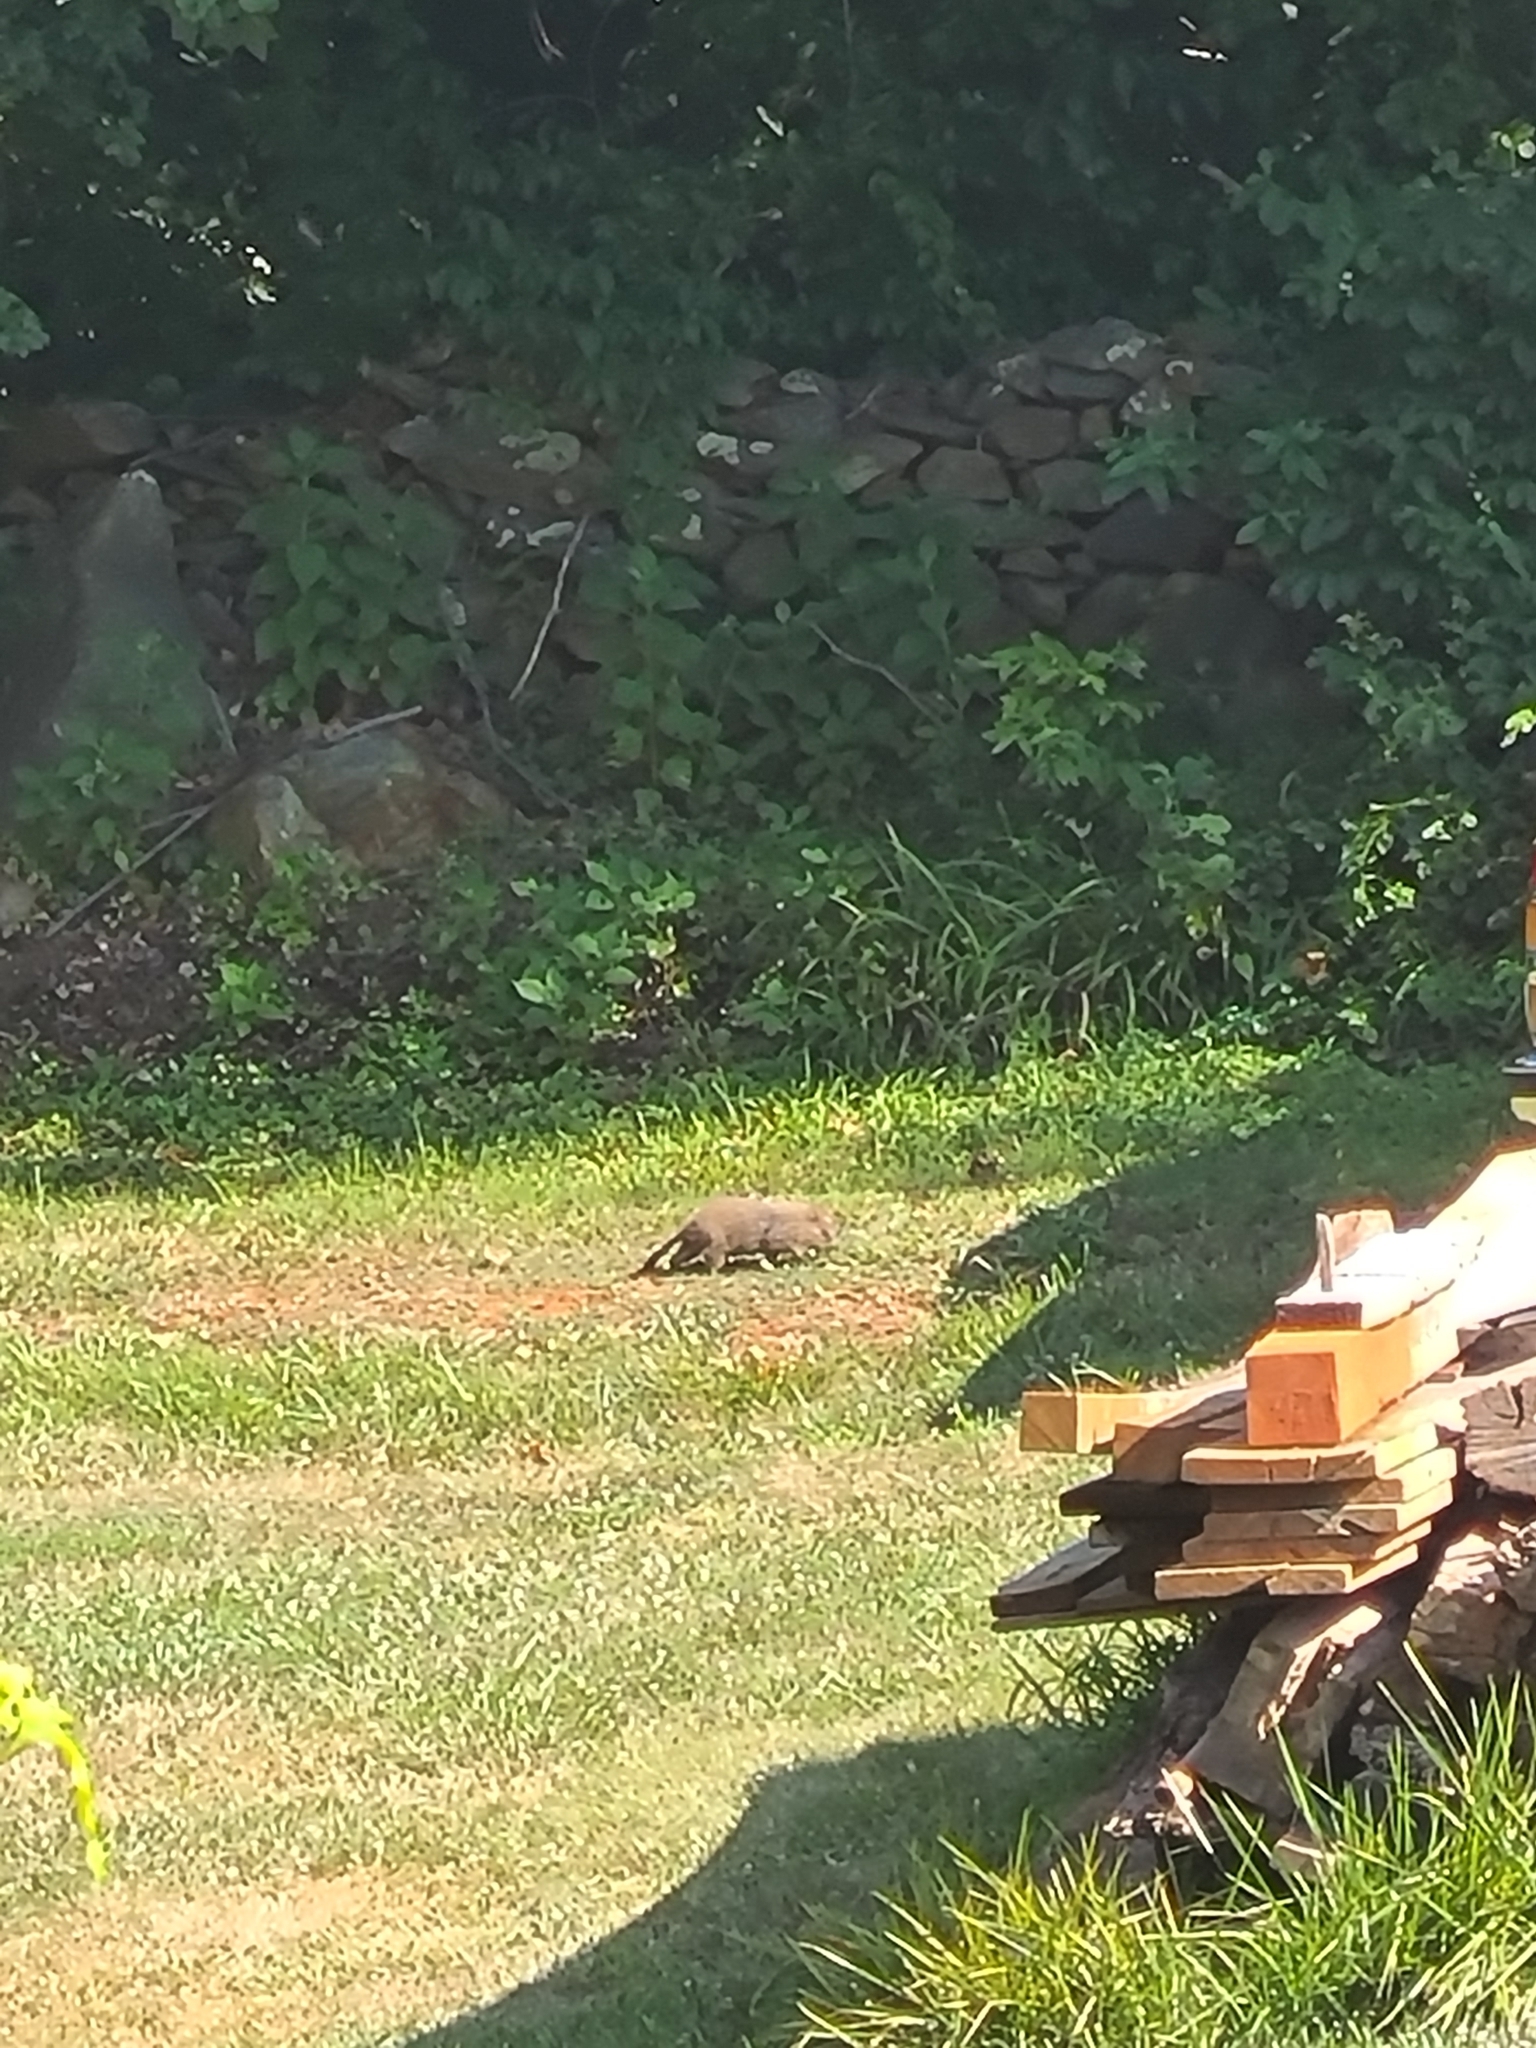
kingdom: Animalia
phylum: Chordata
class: Mammalia
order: Rodentia
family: Sciuridae
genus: Marmota
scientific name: Marmota monax
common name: Groundhog
